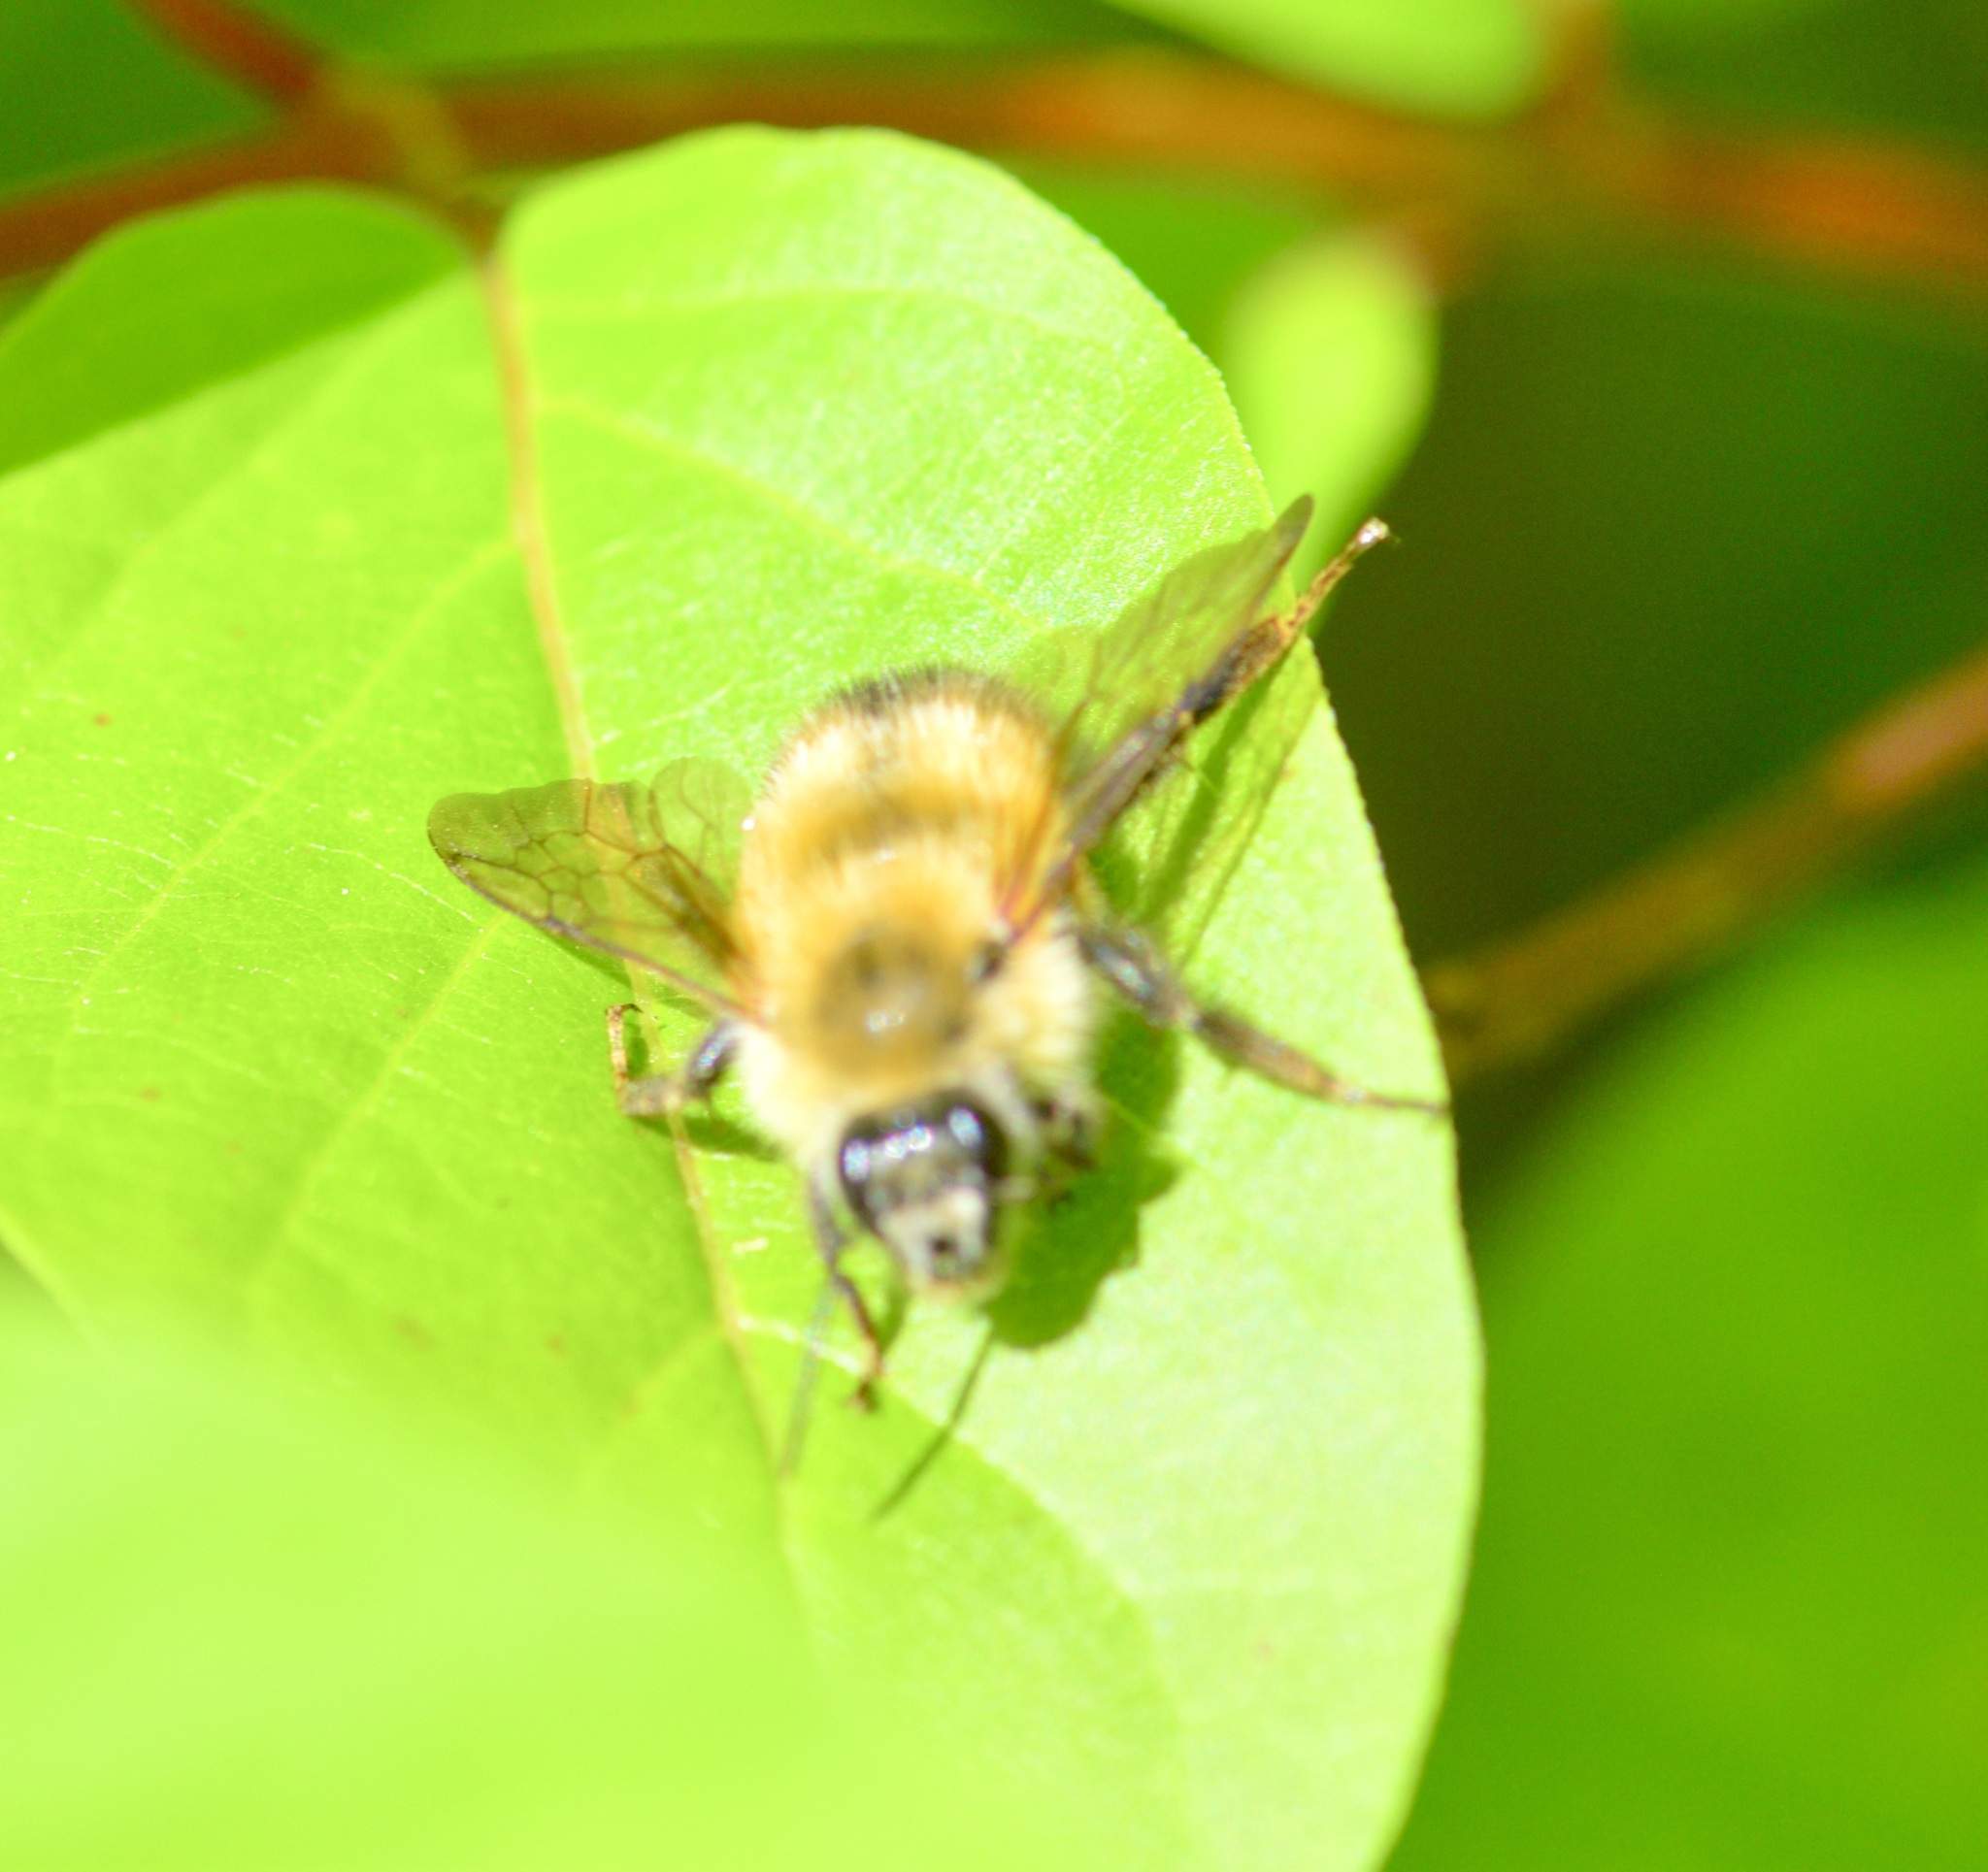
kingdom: Animalia
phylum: Arthropoda
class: Insecta
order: Hymenoptera
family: Apidae
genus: Bombus
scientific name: Bombus perplexus
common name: Confusing bumble bee
